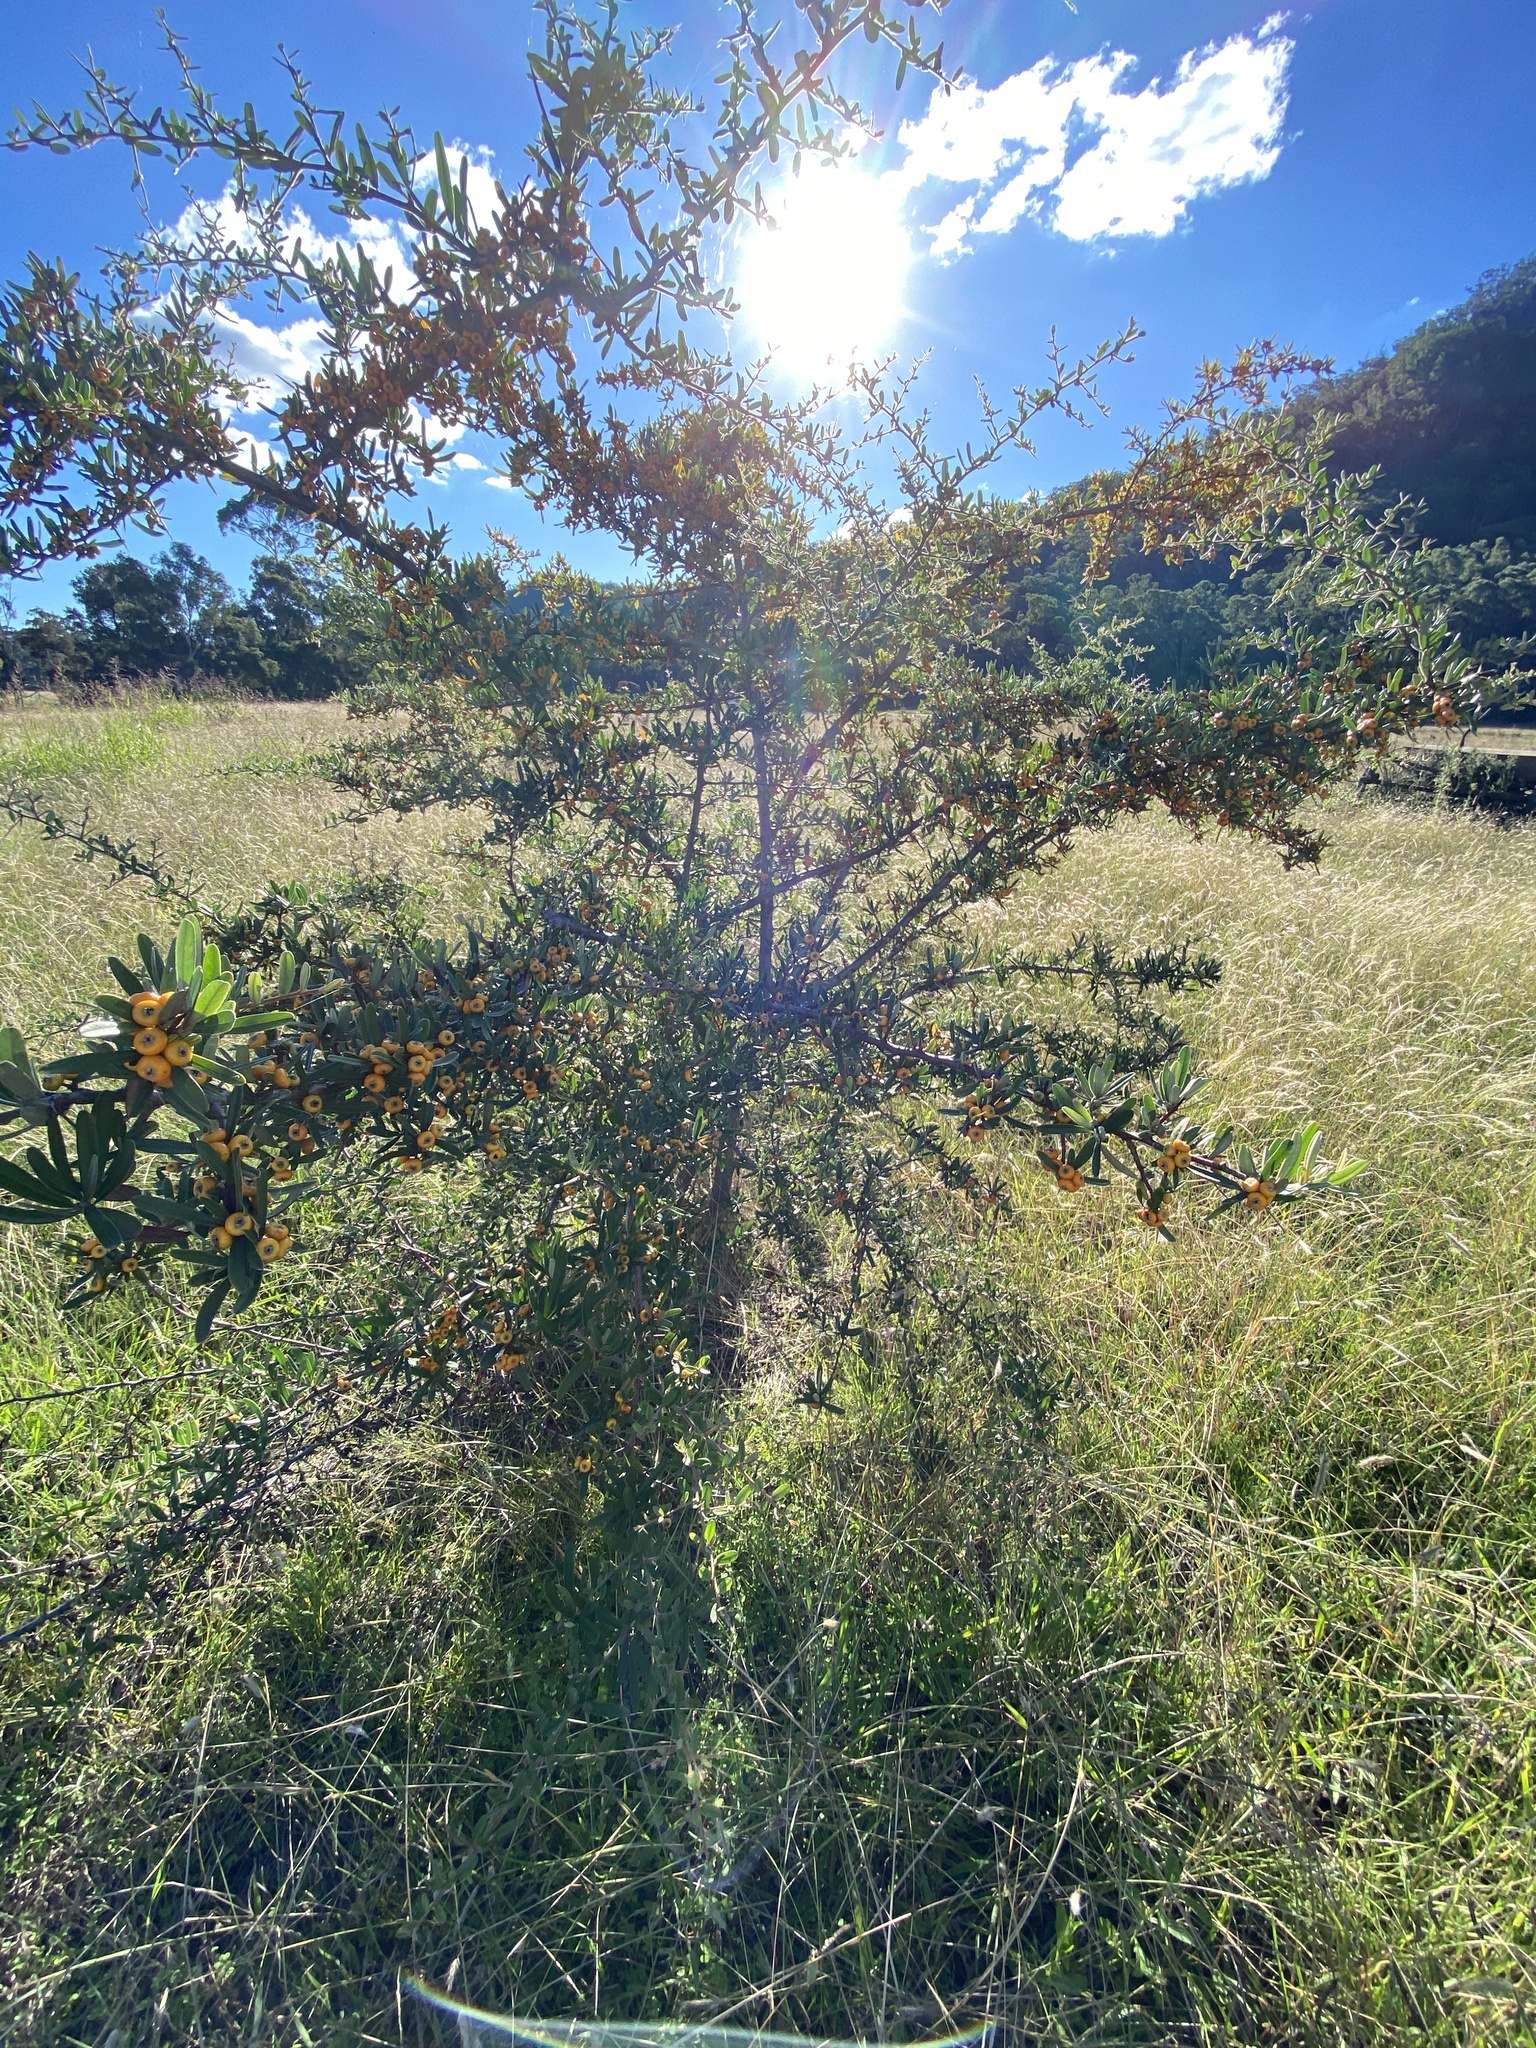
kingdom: Plantae
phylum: Tracheophyta
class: Magnoliopsida
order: Rosales
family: Rosaceae
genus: Pyracantha
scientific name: Pyracantha angustifolia
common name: Narrowleaf firethorn
